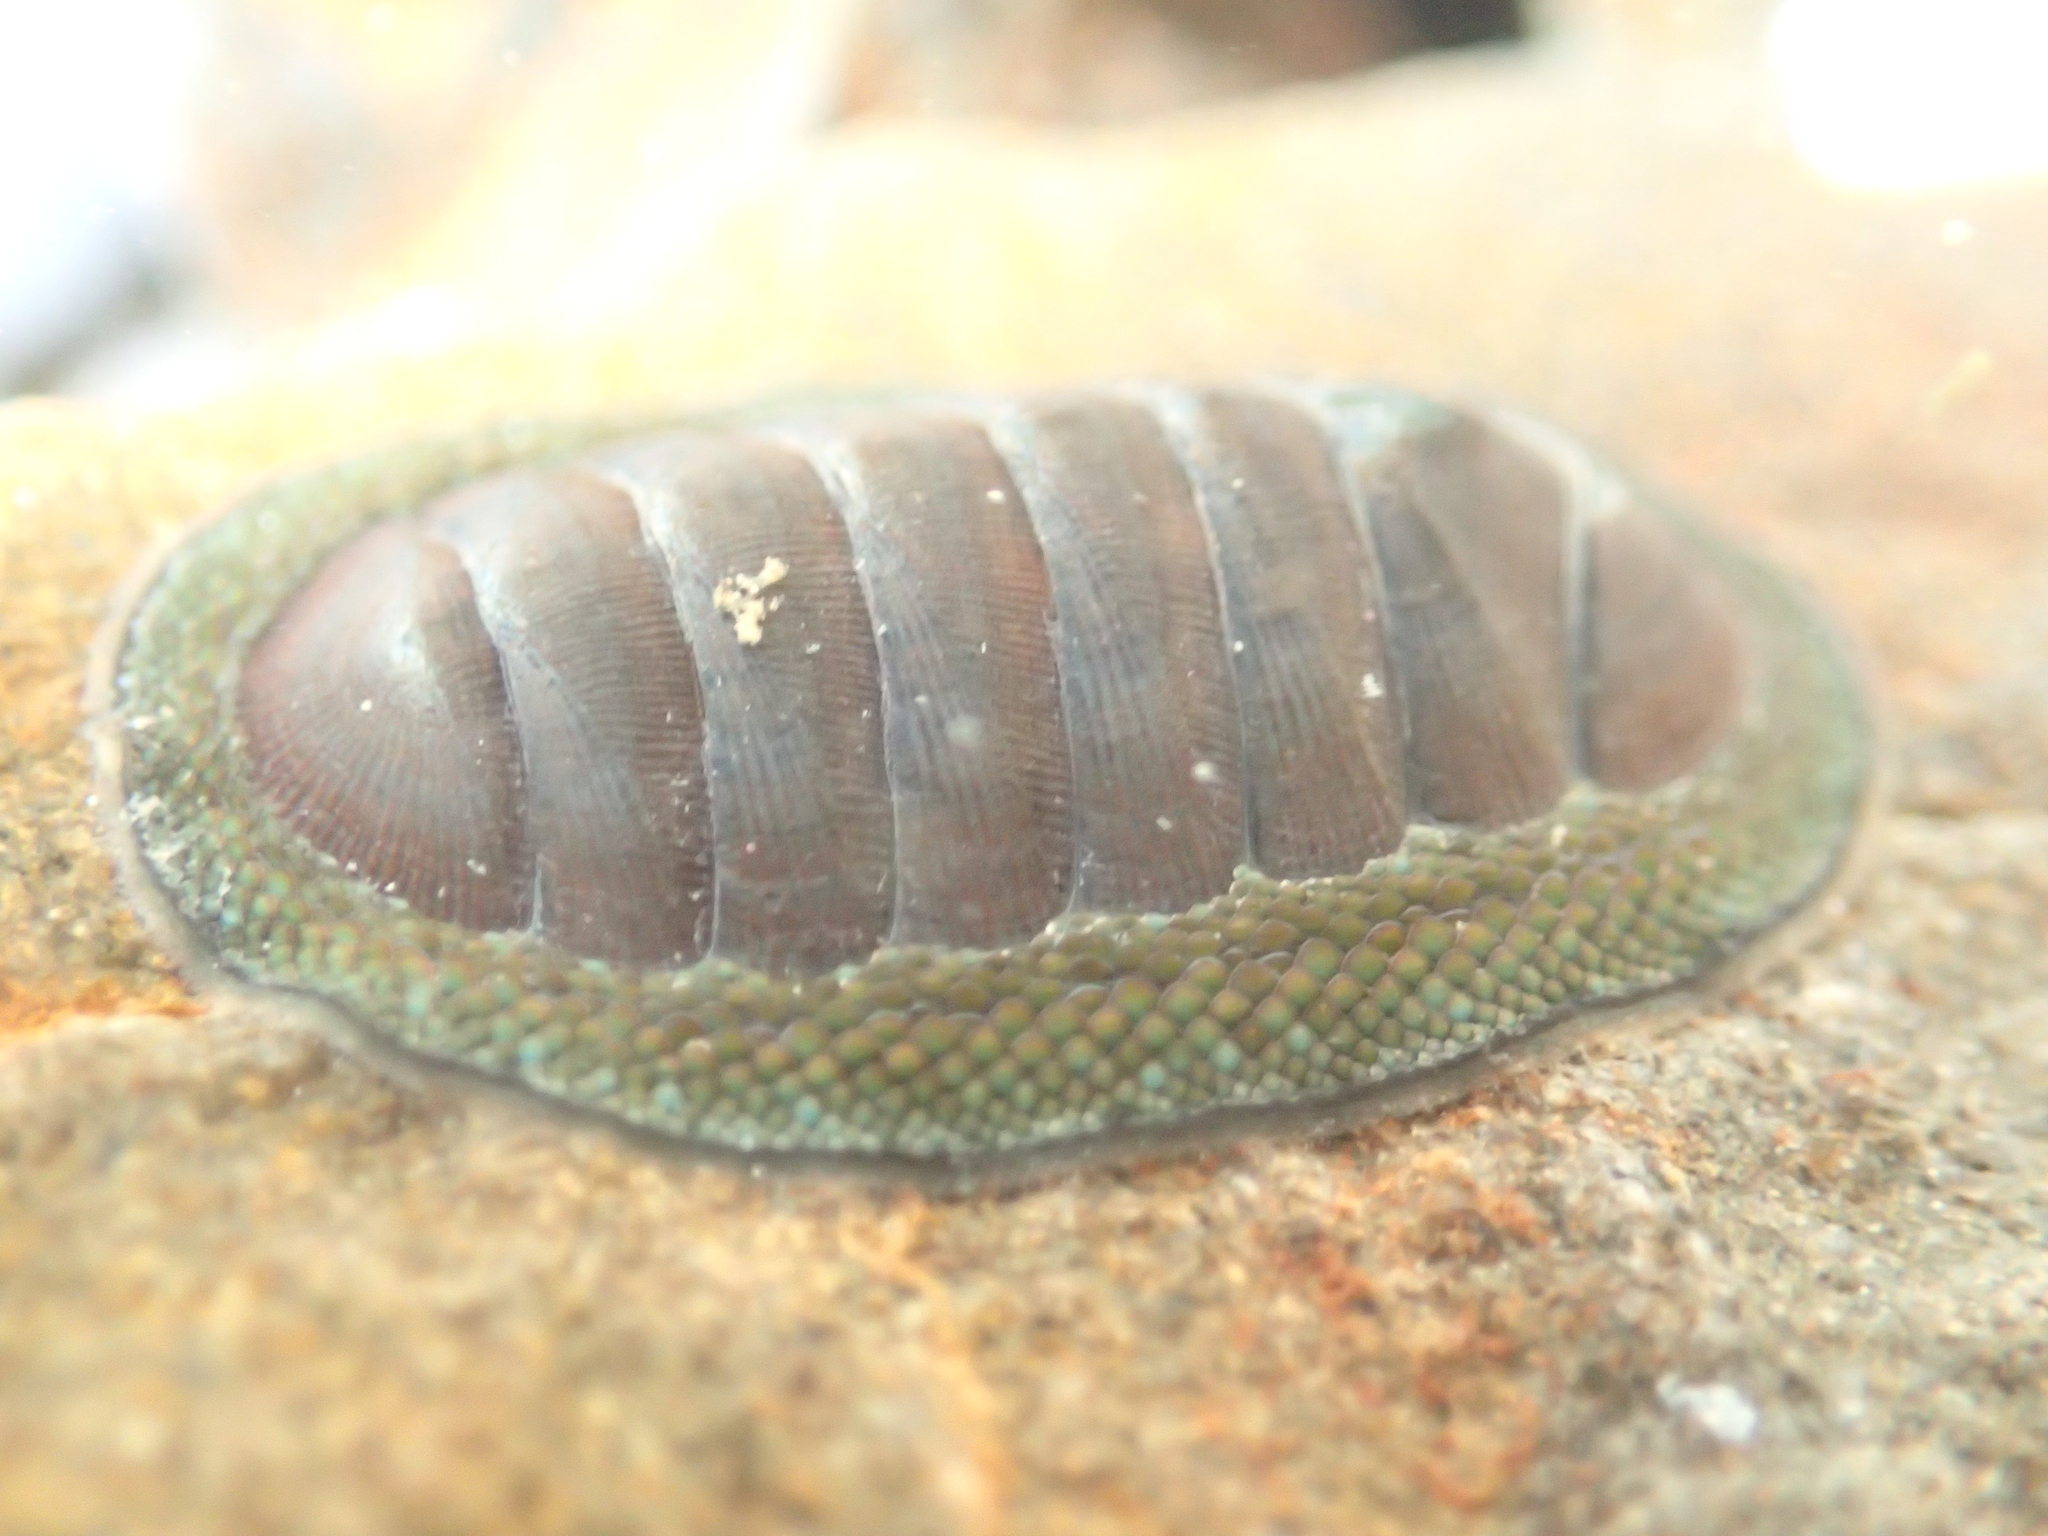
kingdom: Animalia
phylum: Mollusca
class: Polyplacophora
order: Chitonida
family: Chitonidae
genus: Chiton
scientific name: Chiton glaucus
